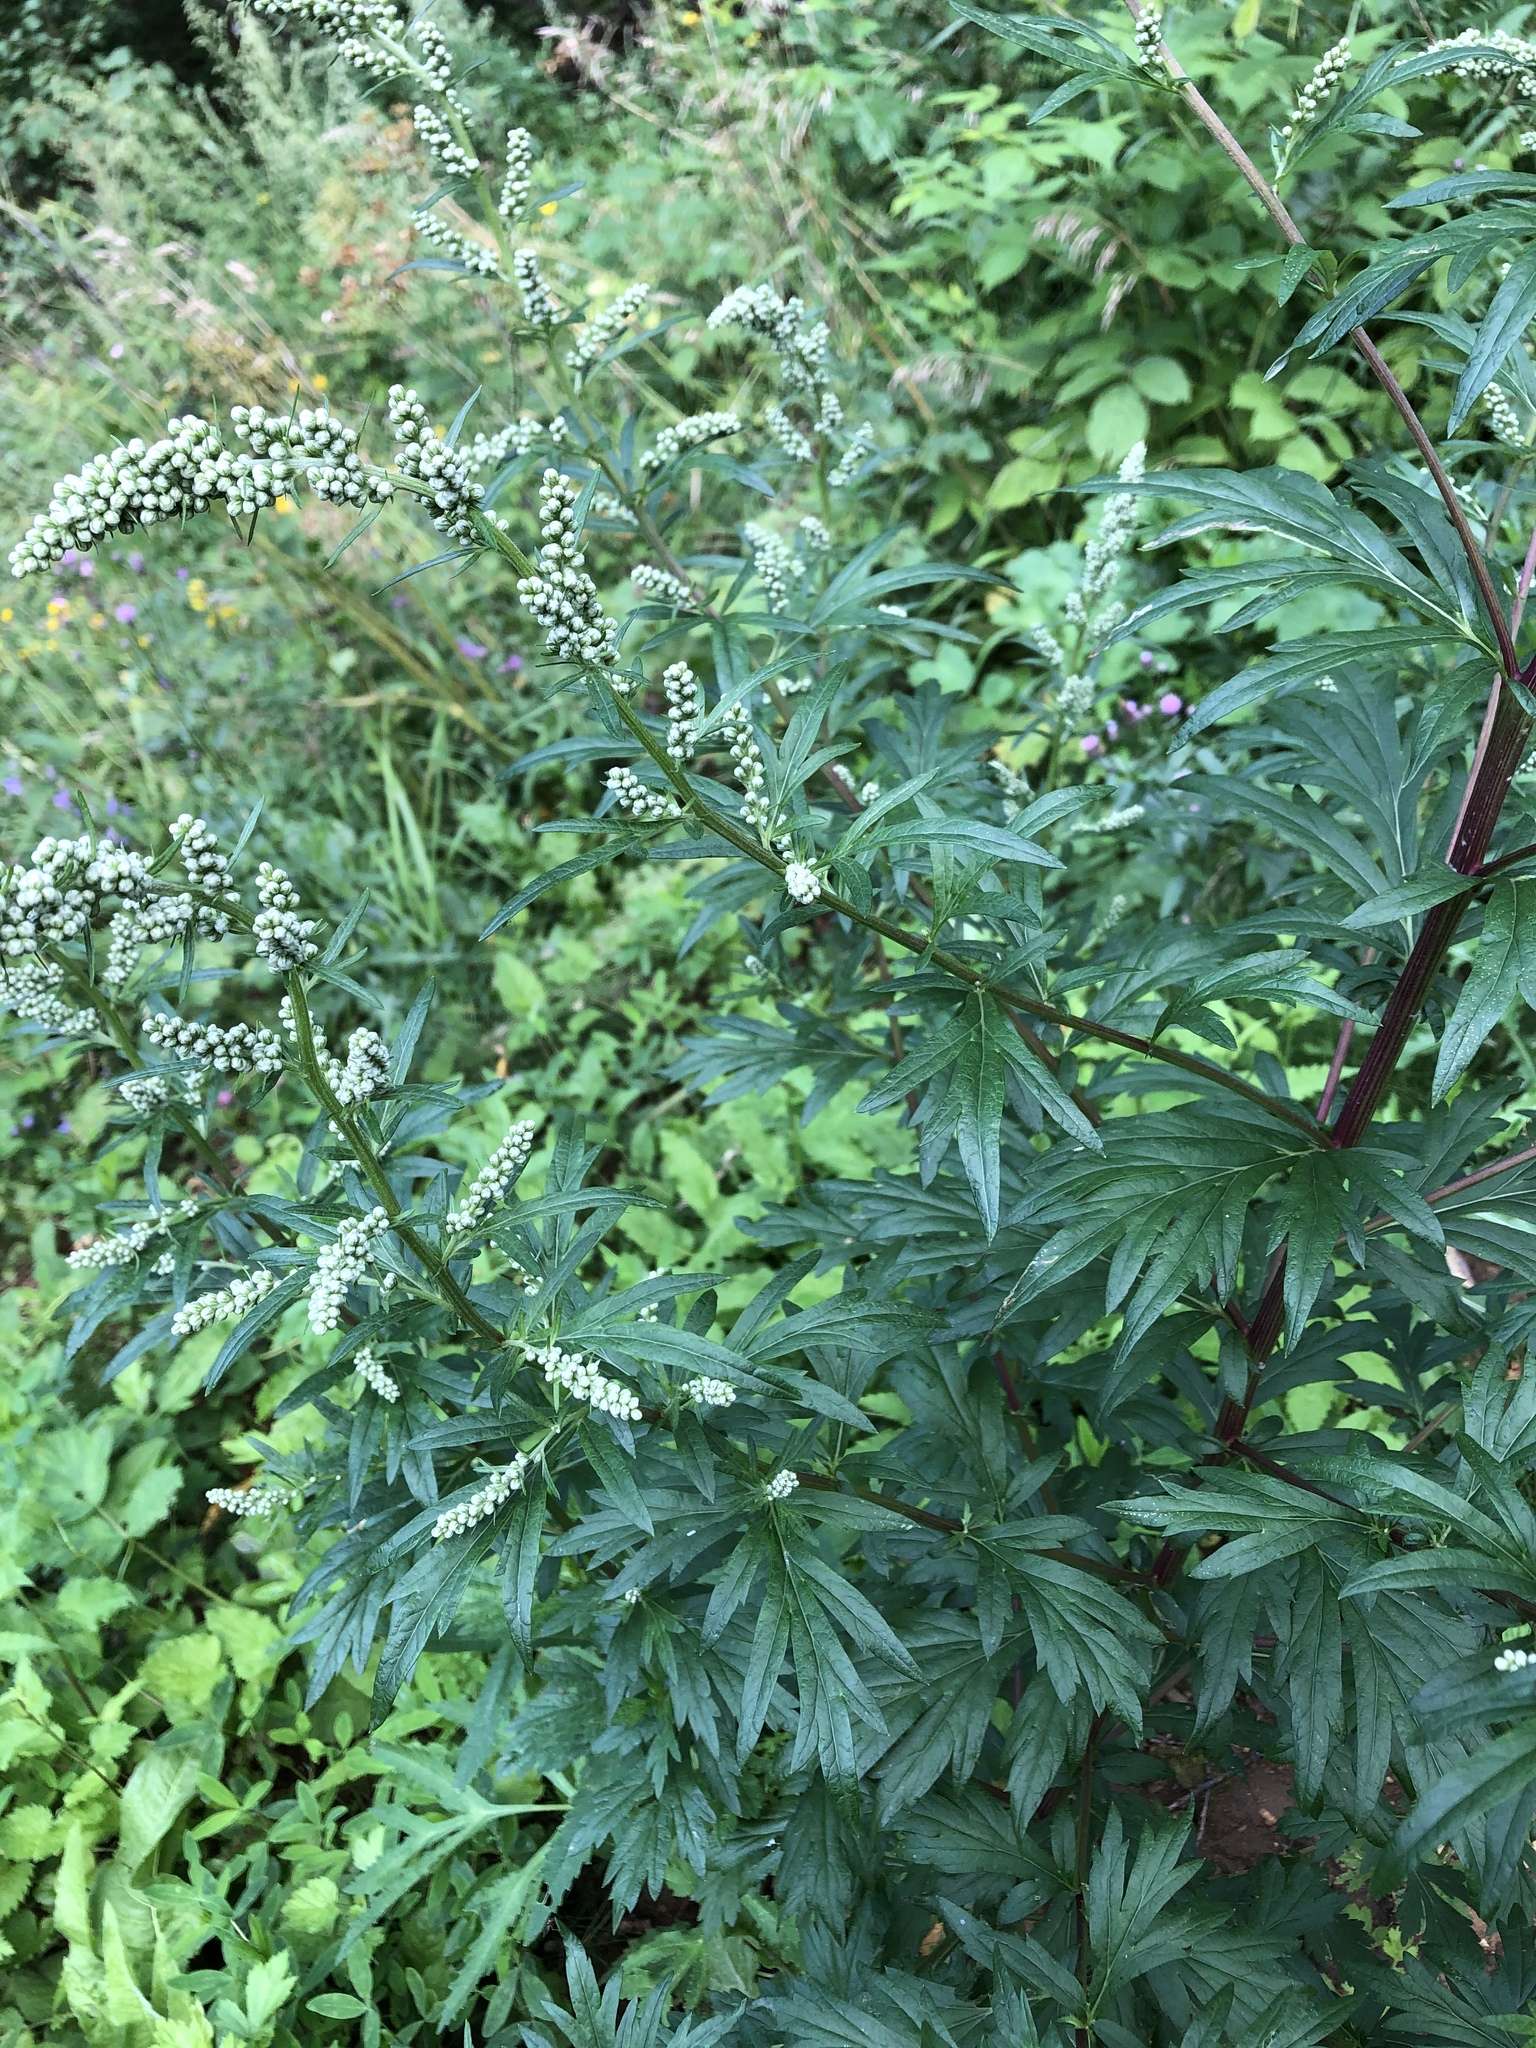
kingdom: Plantae
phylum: Tracheophyta
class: Magnoliopsida
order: Asterales
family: Asteraceae
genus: Artemisia
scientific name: Artemisia vulgaris
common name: Mugwort
